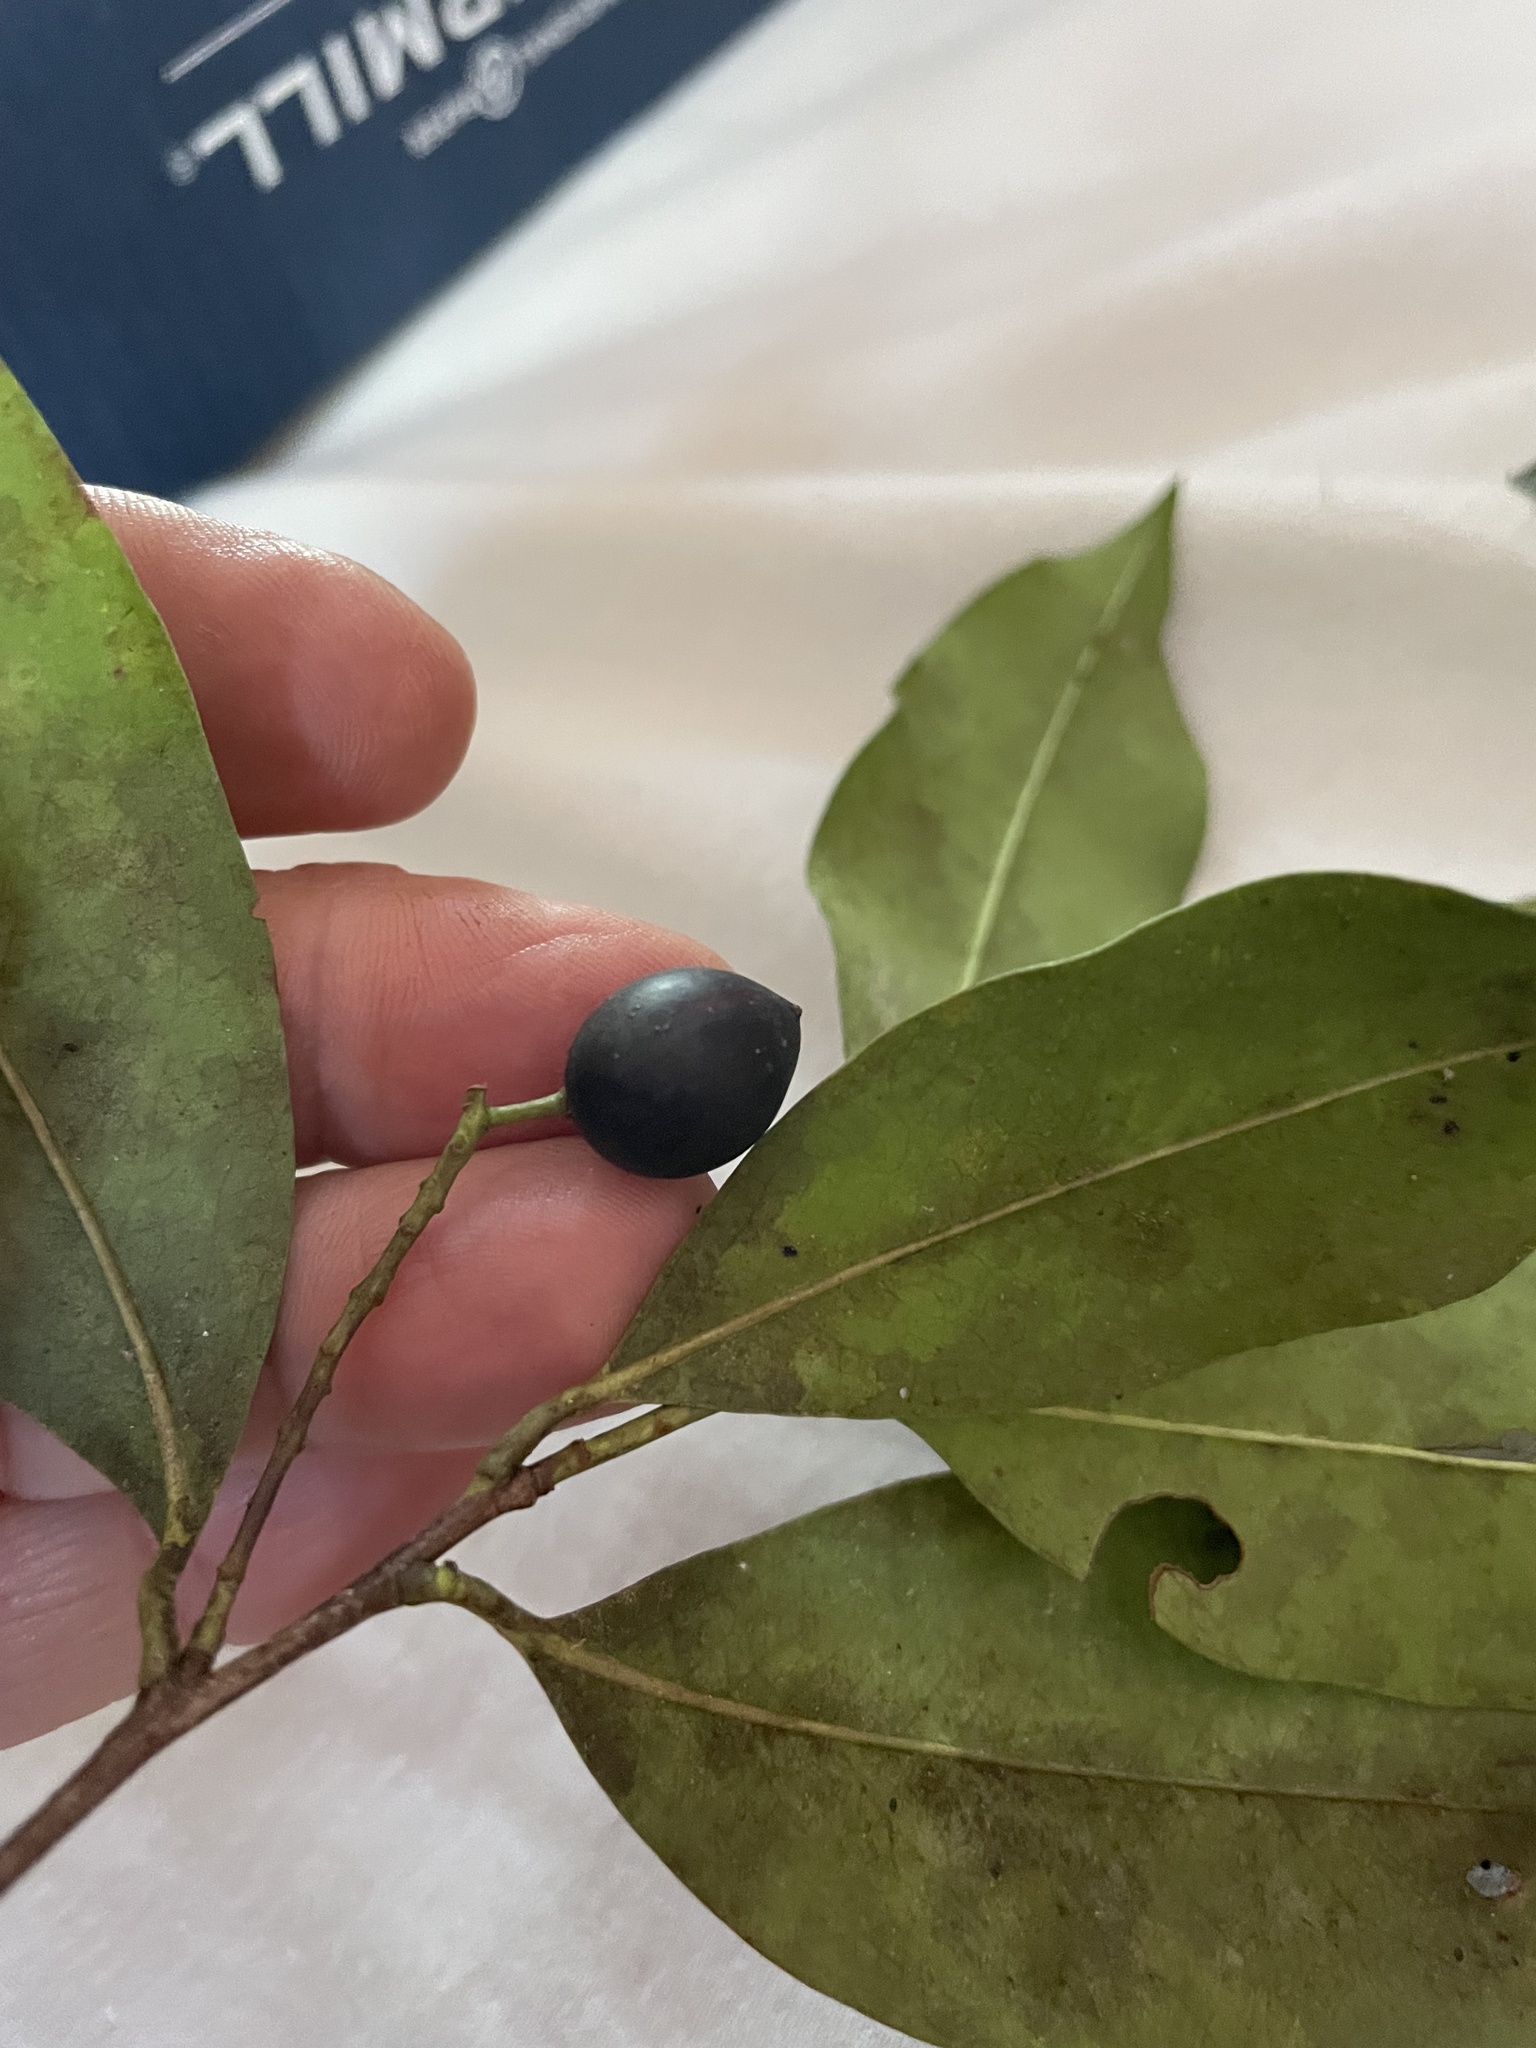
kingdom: Plantae
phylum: Tracheophyta
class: Magnoliopsida
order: Rosales
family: Rosaceae
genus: Prunus
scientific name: Prunus caroliniana
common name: Carolina laurel cherry
